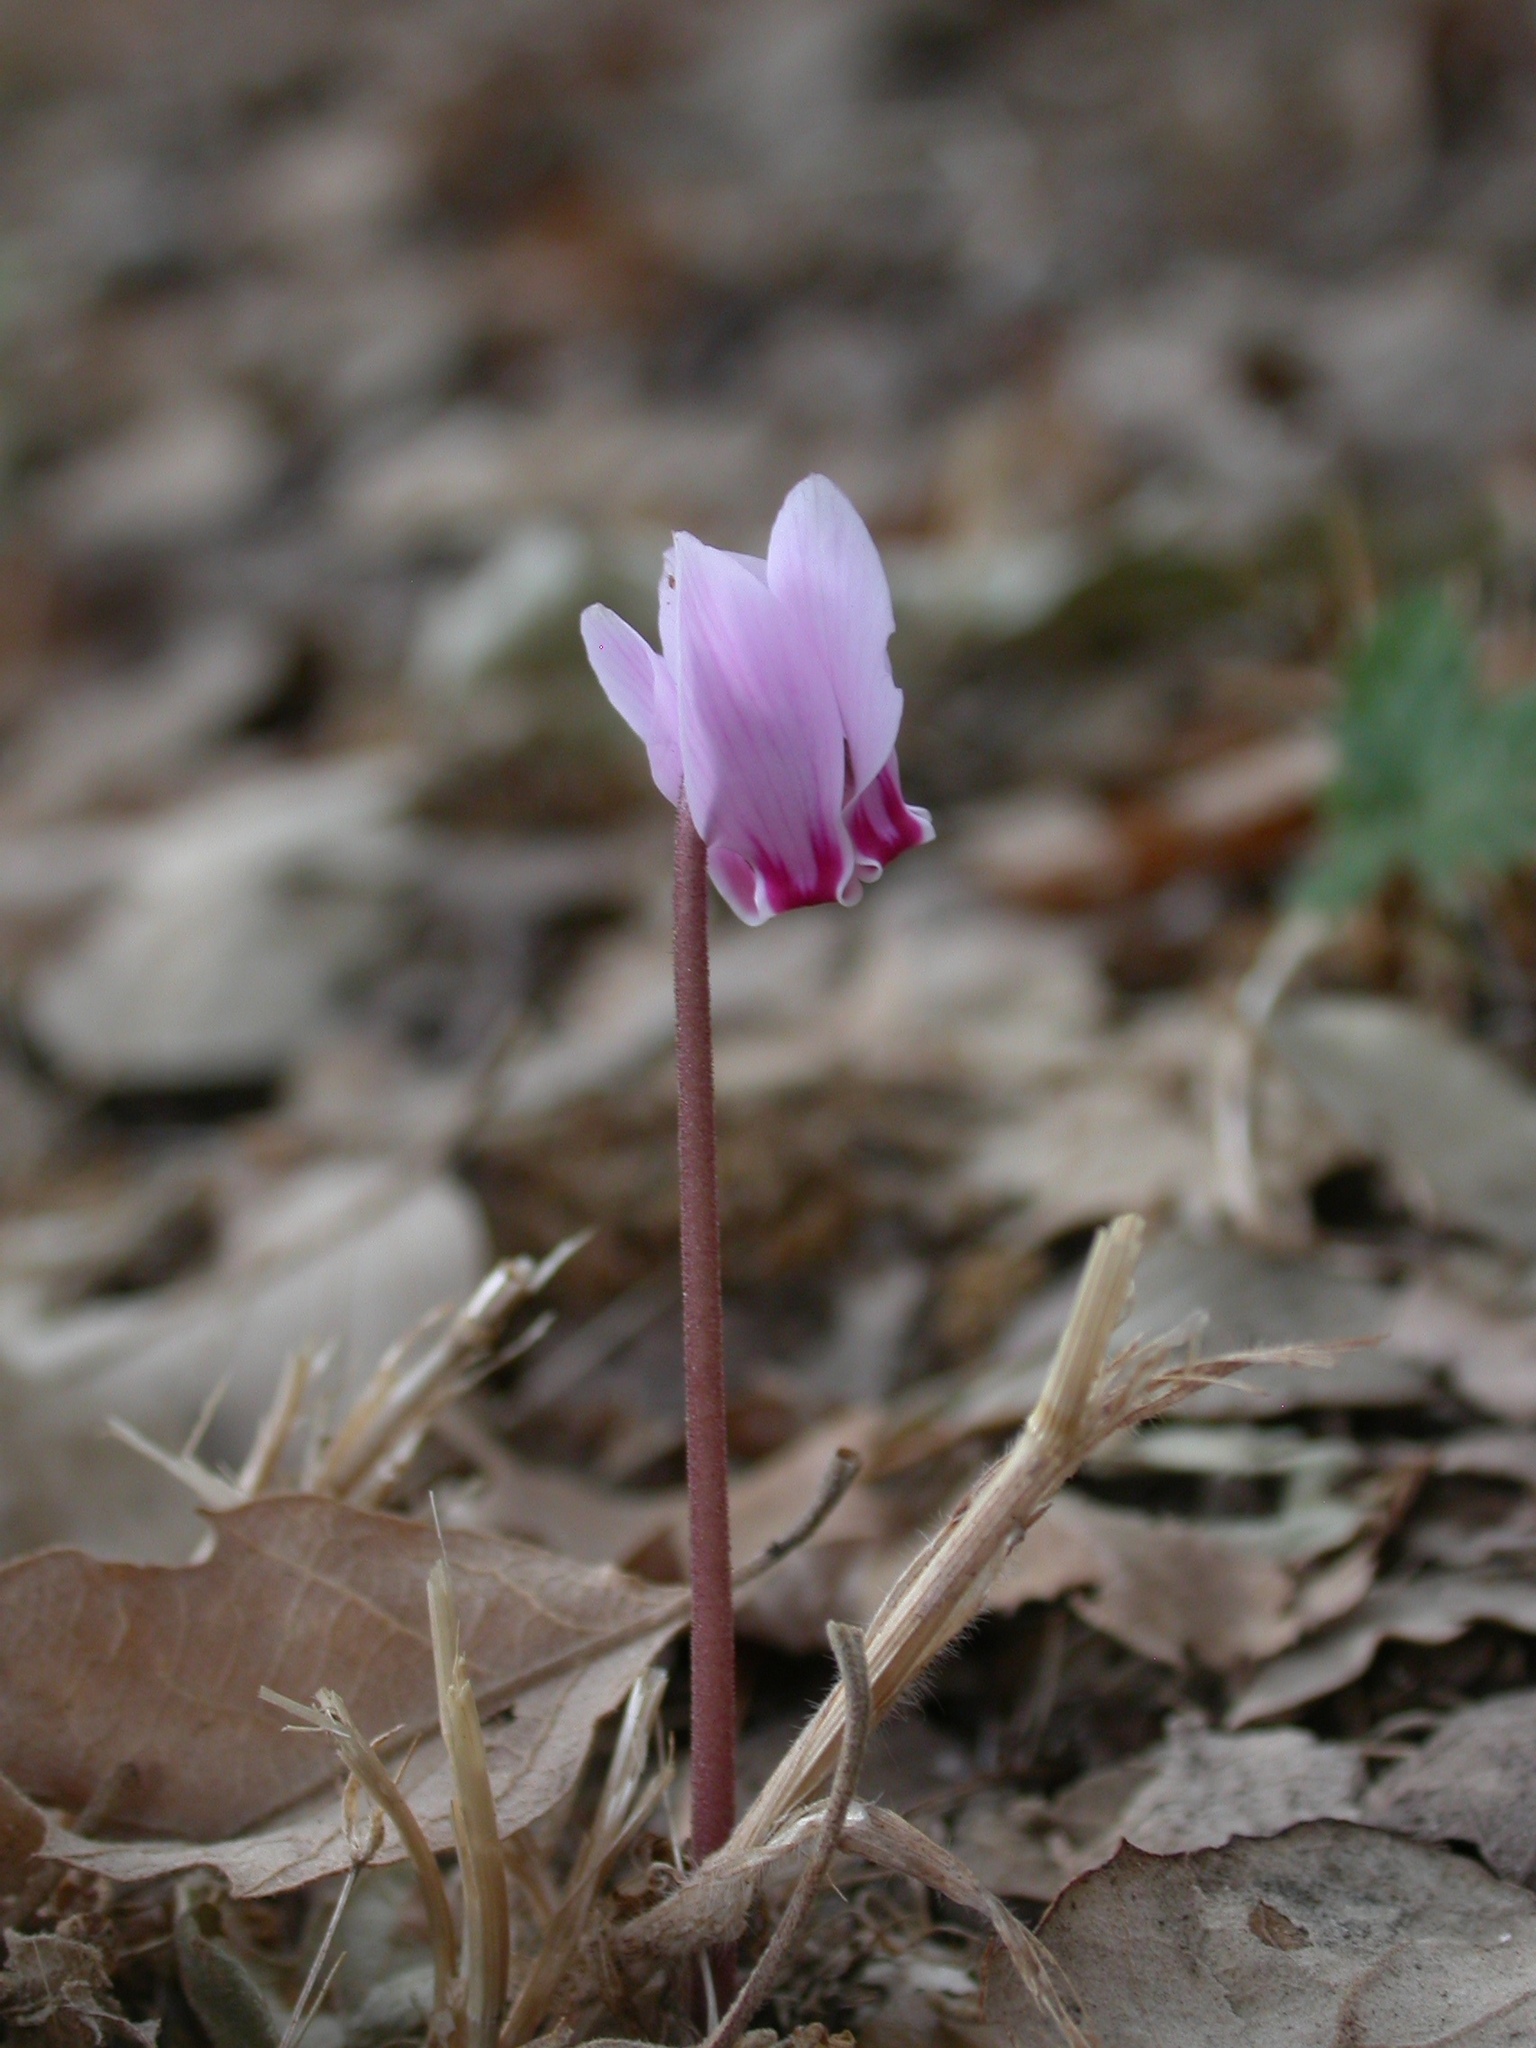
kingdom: Plantae
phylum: Tracheophyta
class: Magnoliopsida
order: Ericales
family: Primulaceae
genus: Cyclamen
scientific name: Cyclamen hederifolium
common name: Sowbread
